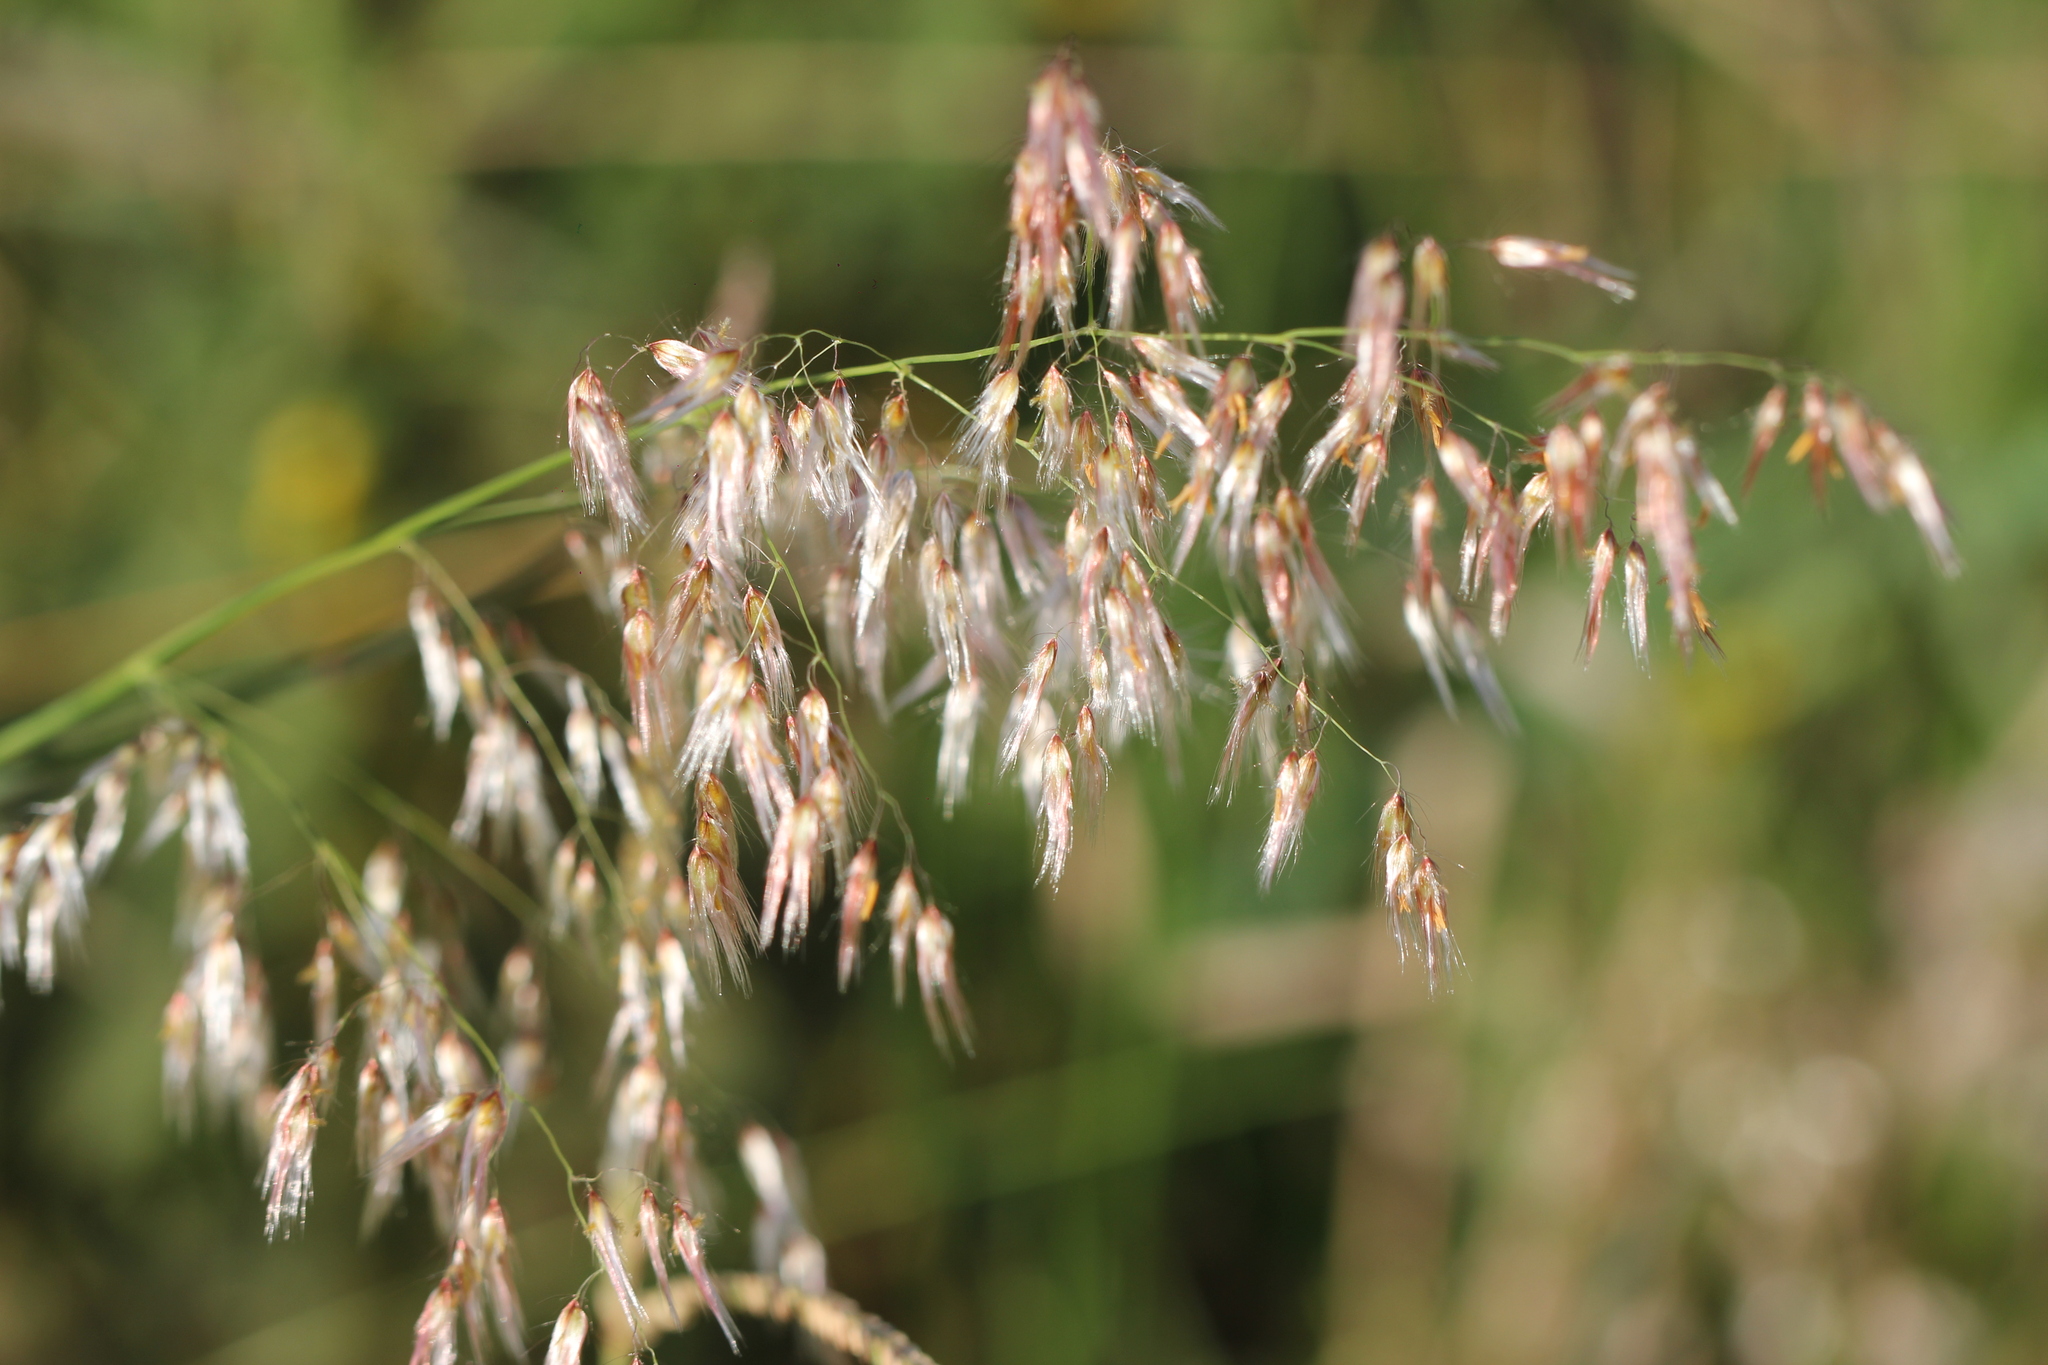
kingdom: Plantae
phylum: Tracheophyta
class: Liliopsida
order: Poales
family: Poaceae
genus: Melinis
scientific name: Melinis repens
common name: Rose natal grass
